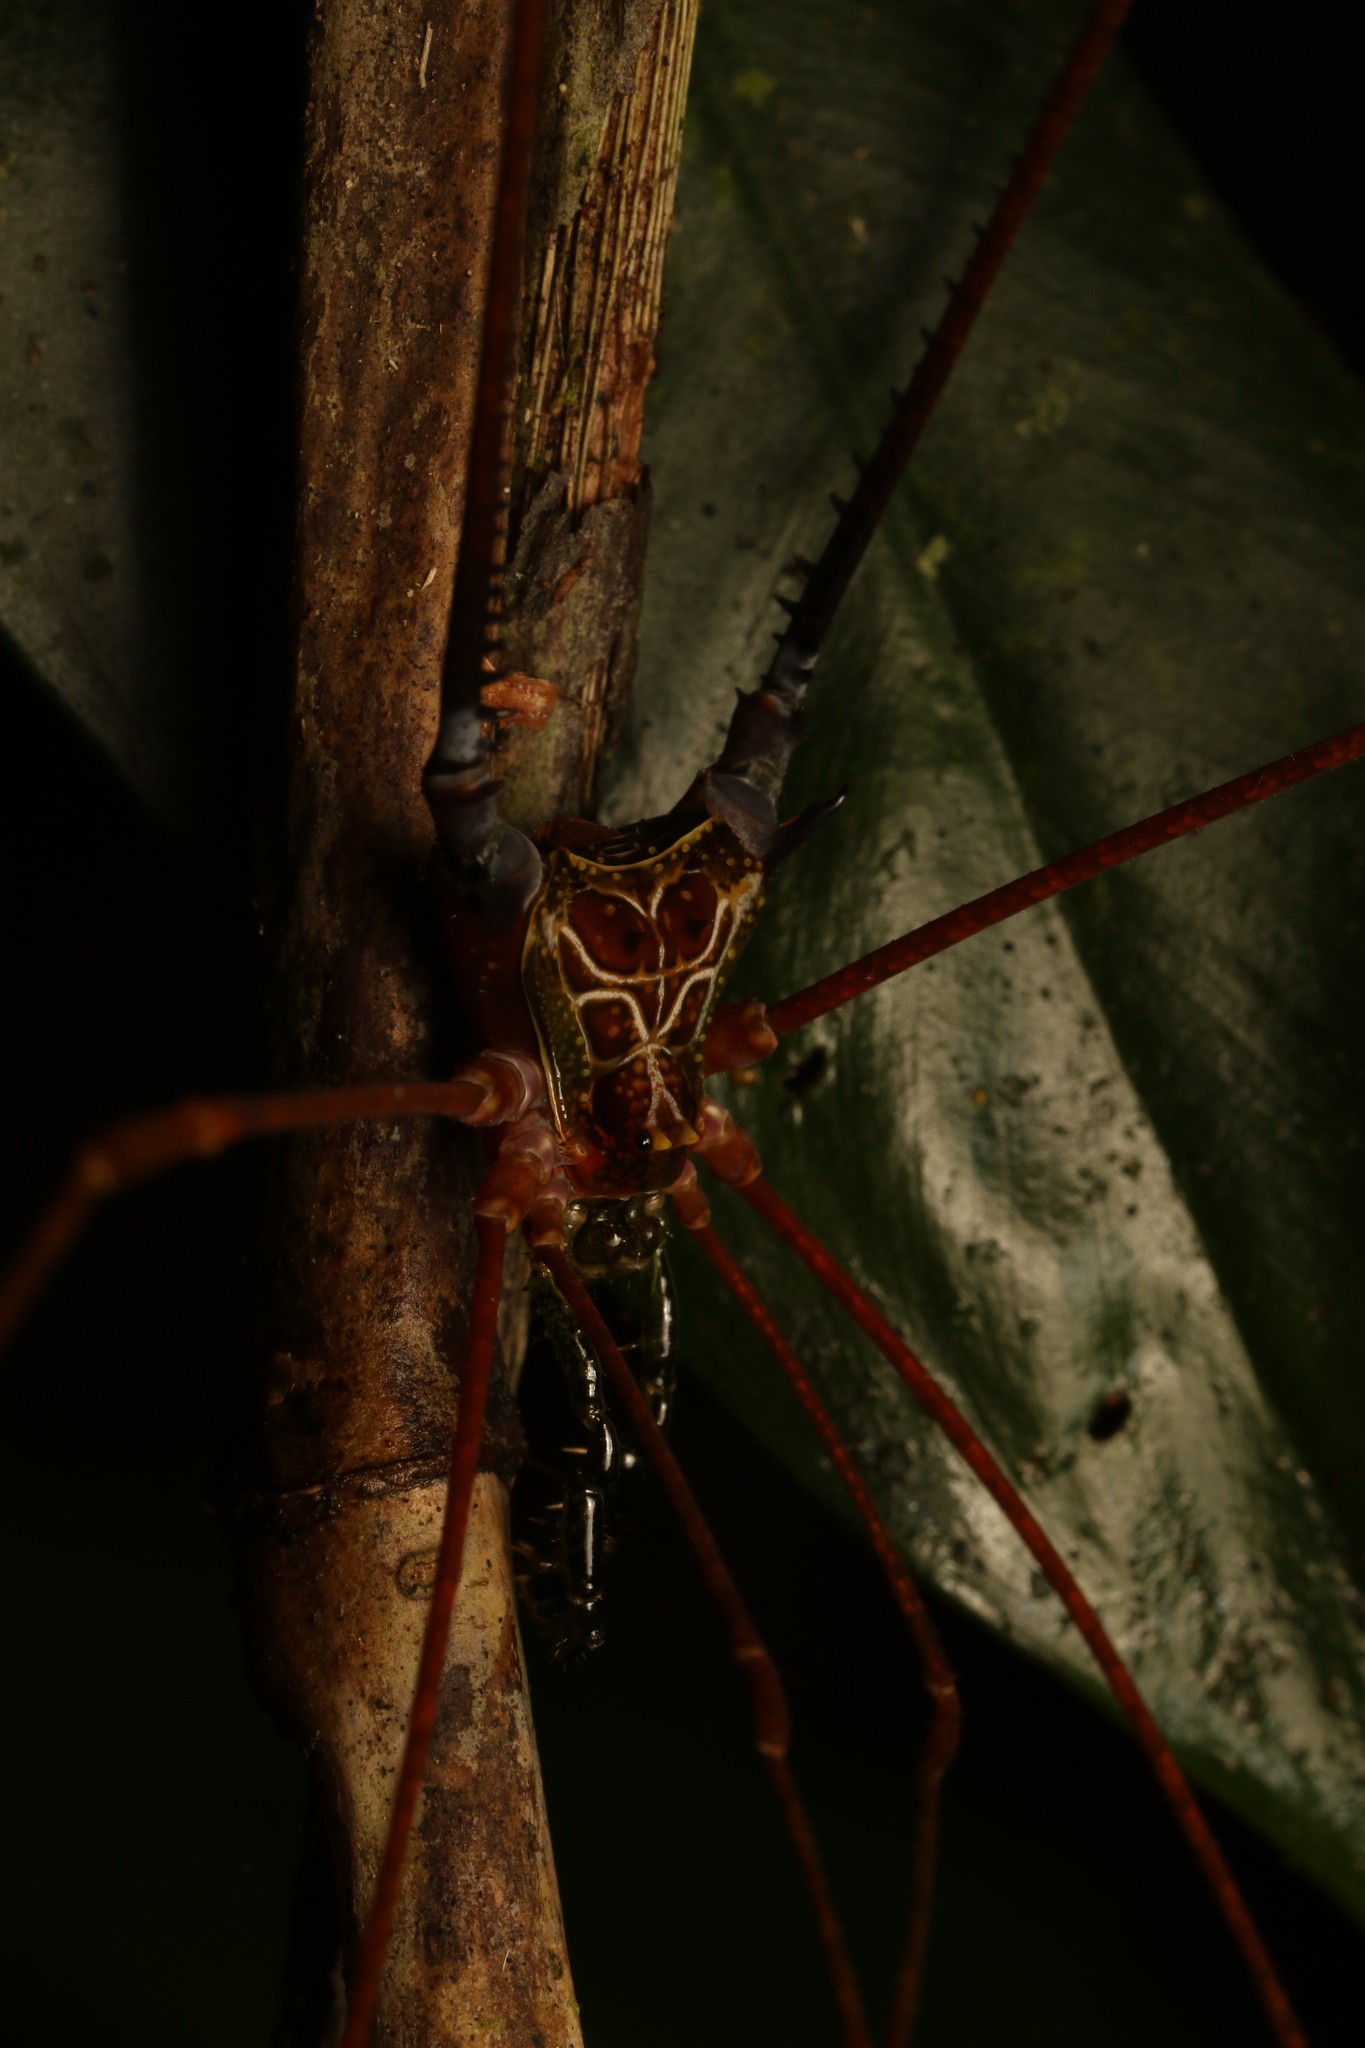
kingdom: Animalia
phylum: Arthropoda
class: Arachnida
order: Opiliones
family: Gonyleptidae
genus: Serracutisoma
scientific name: Serracutisoma proximum
